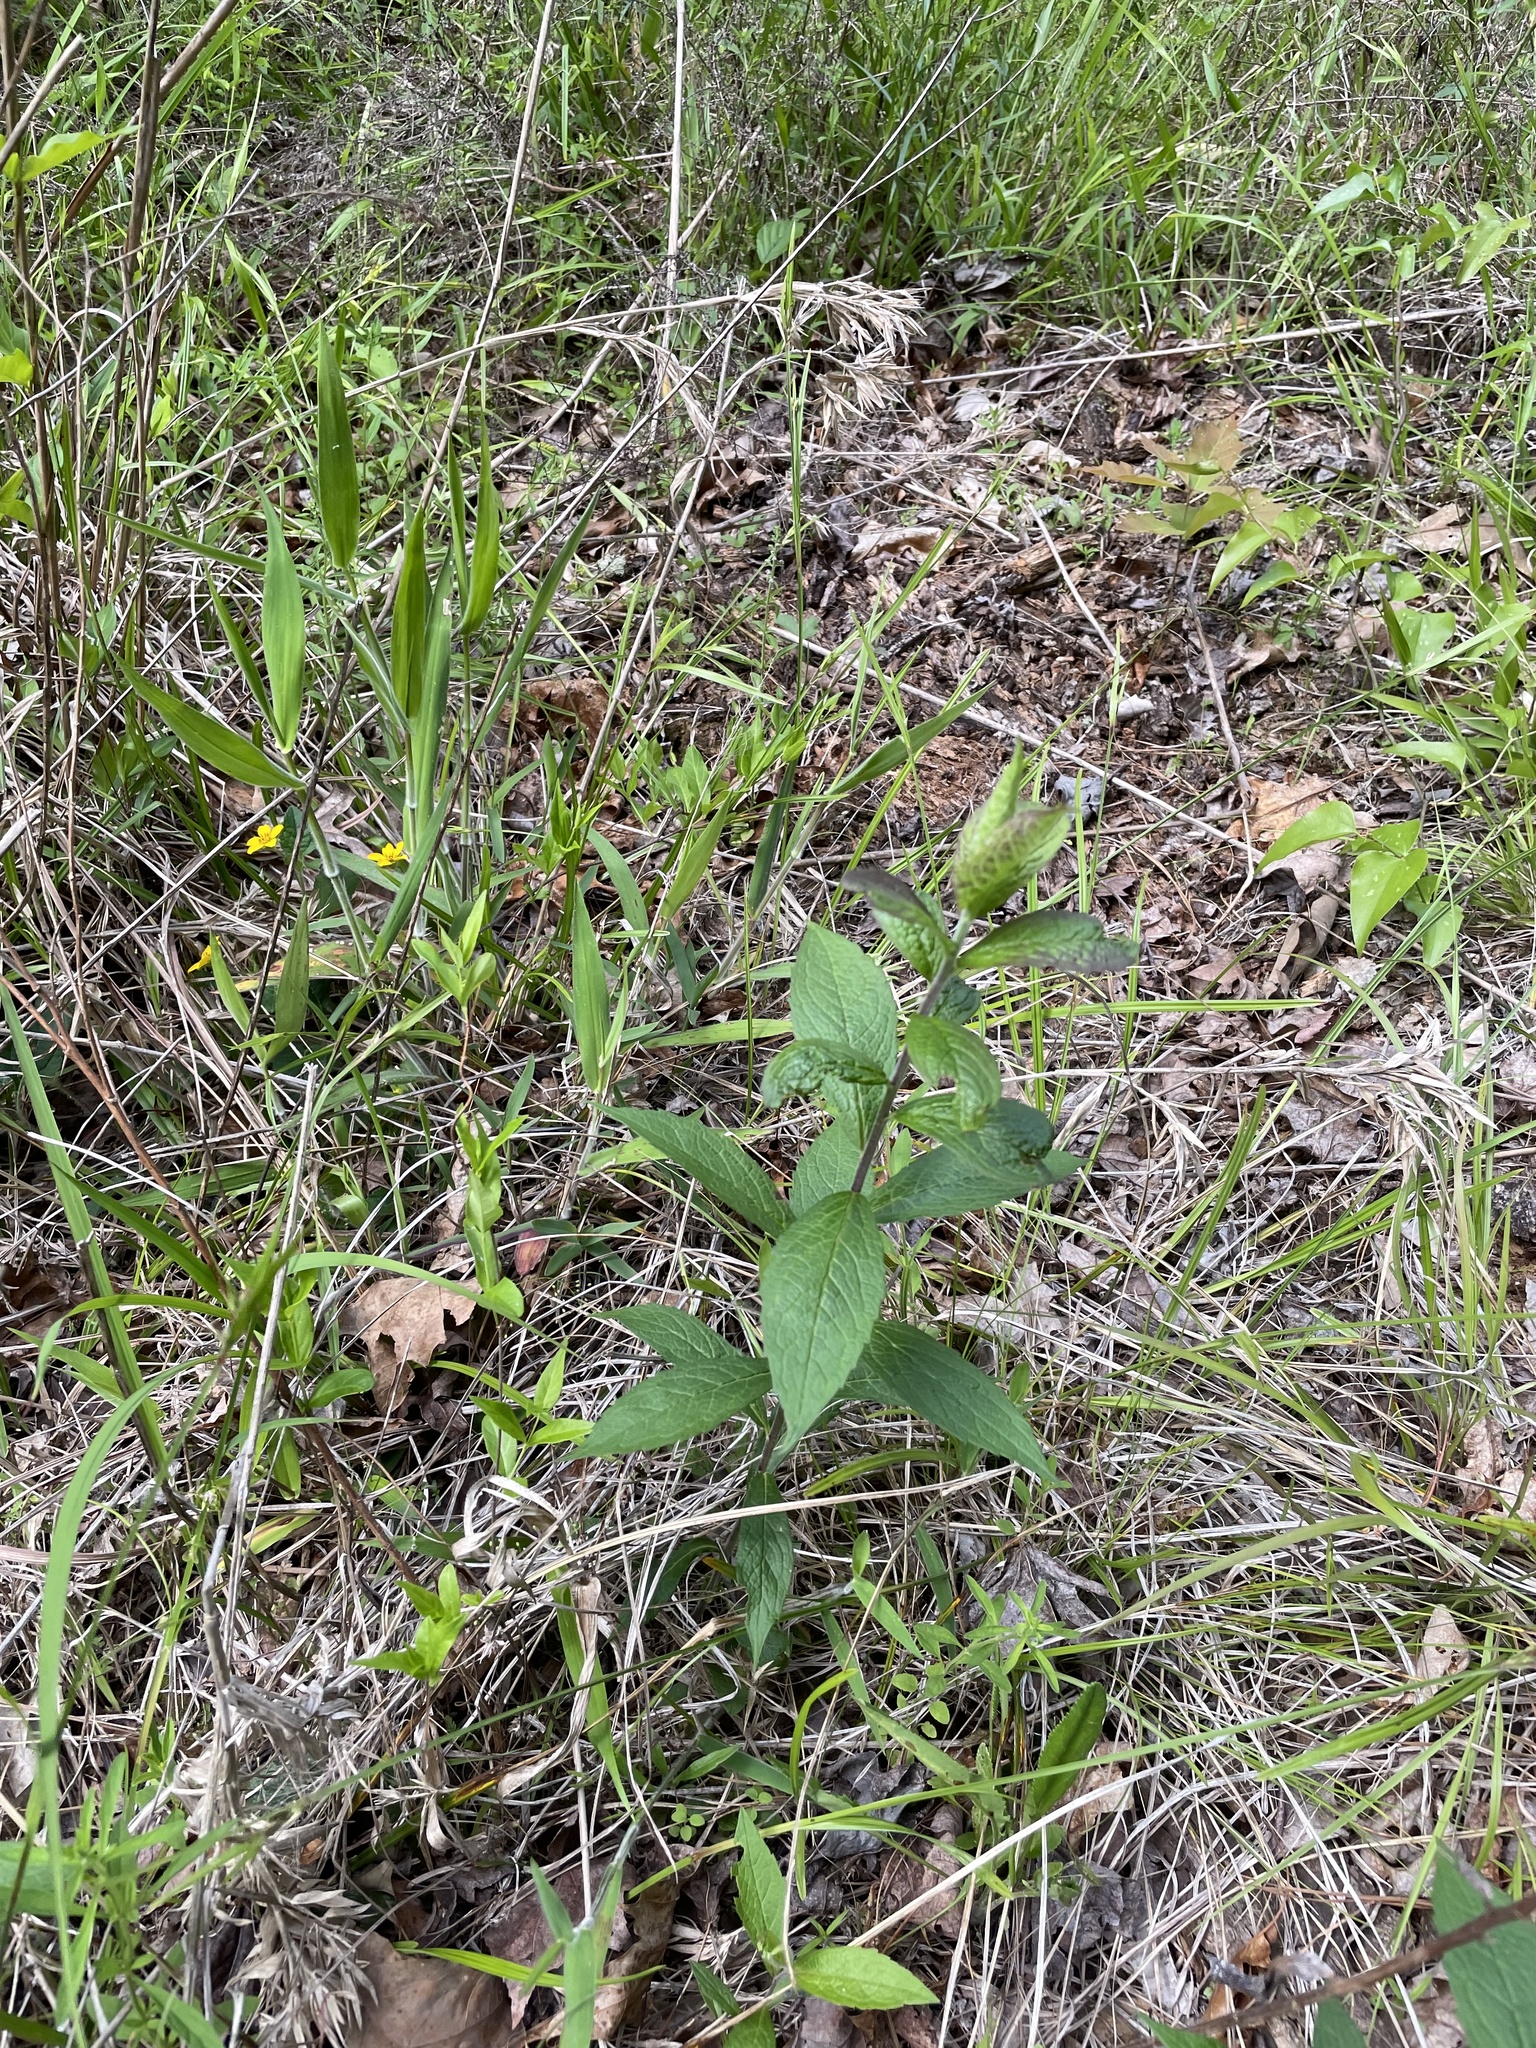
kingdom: Plantae
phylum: Tracheophyta
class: Magnoliopsida
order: Asterales
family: Asteraceae
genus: Solidago
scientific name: Solidago rugosa
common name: Rough-stemmed goldenrod
